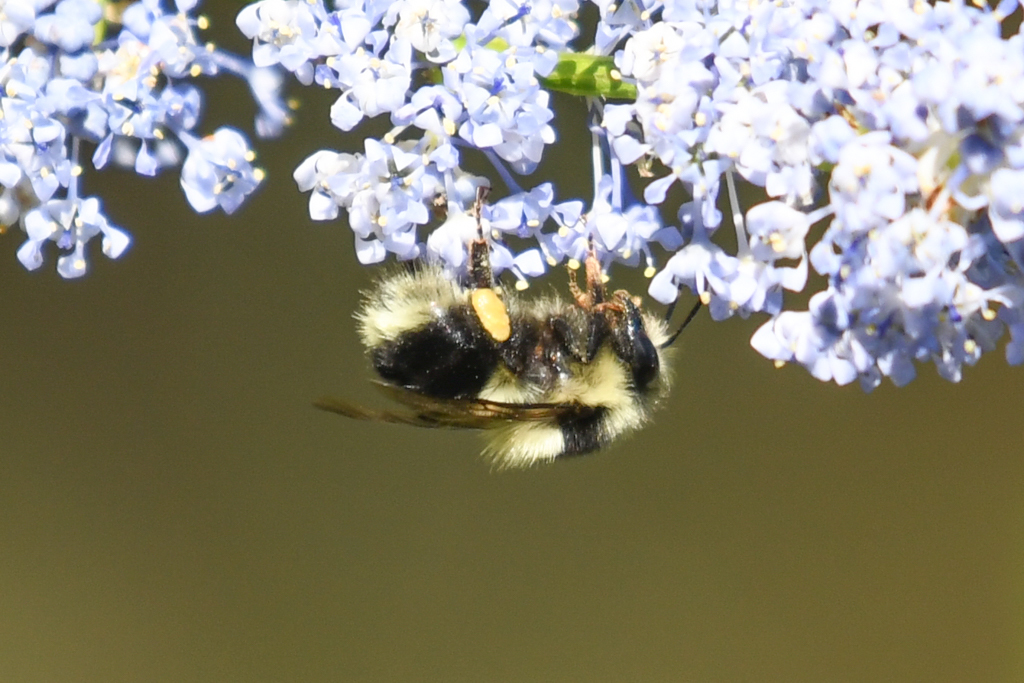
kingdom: Animalia
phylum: Arthropoda
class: Insecta
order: Hymenoptera
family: Apidae
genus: Bombus
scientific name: Bombus melanopygus
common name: Black tail bumble bee
